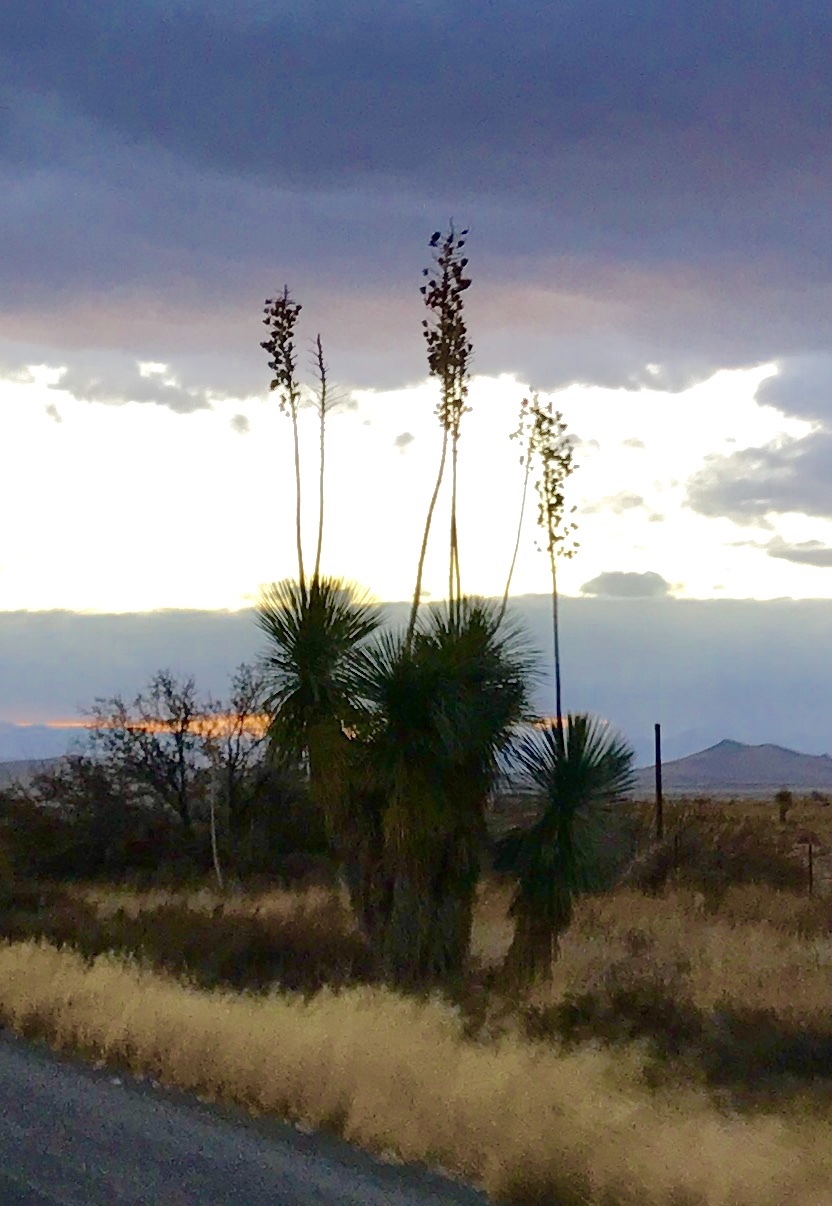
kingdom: Plantae
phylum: Tracheophyta
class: Liliopsida
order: Asparagales
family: Asparagaceae
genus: Yucca
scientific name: Yucca elata
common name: Palmella
